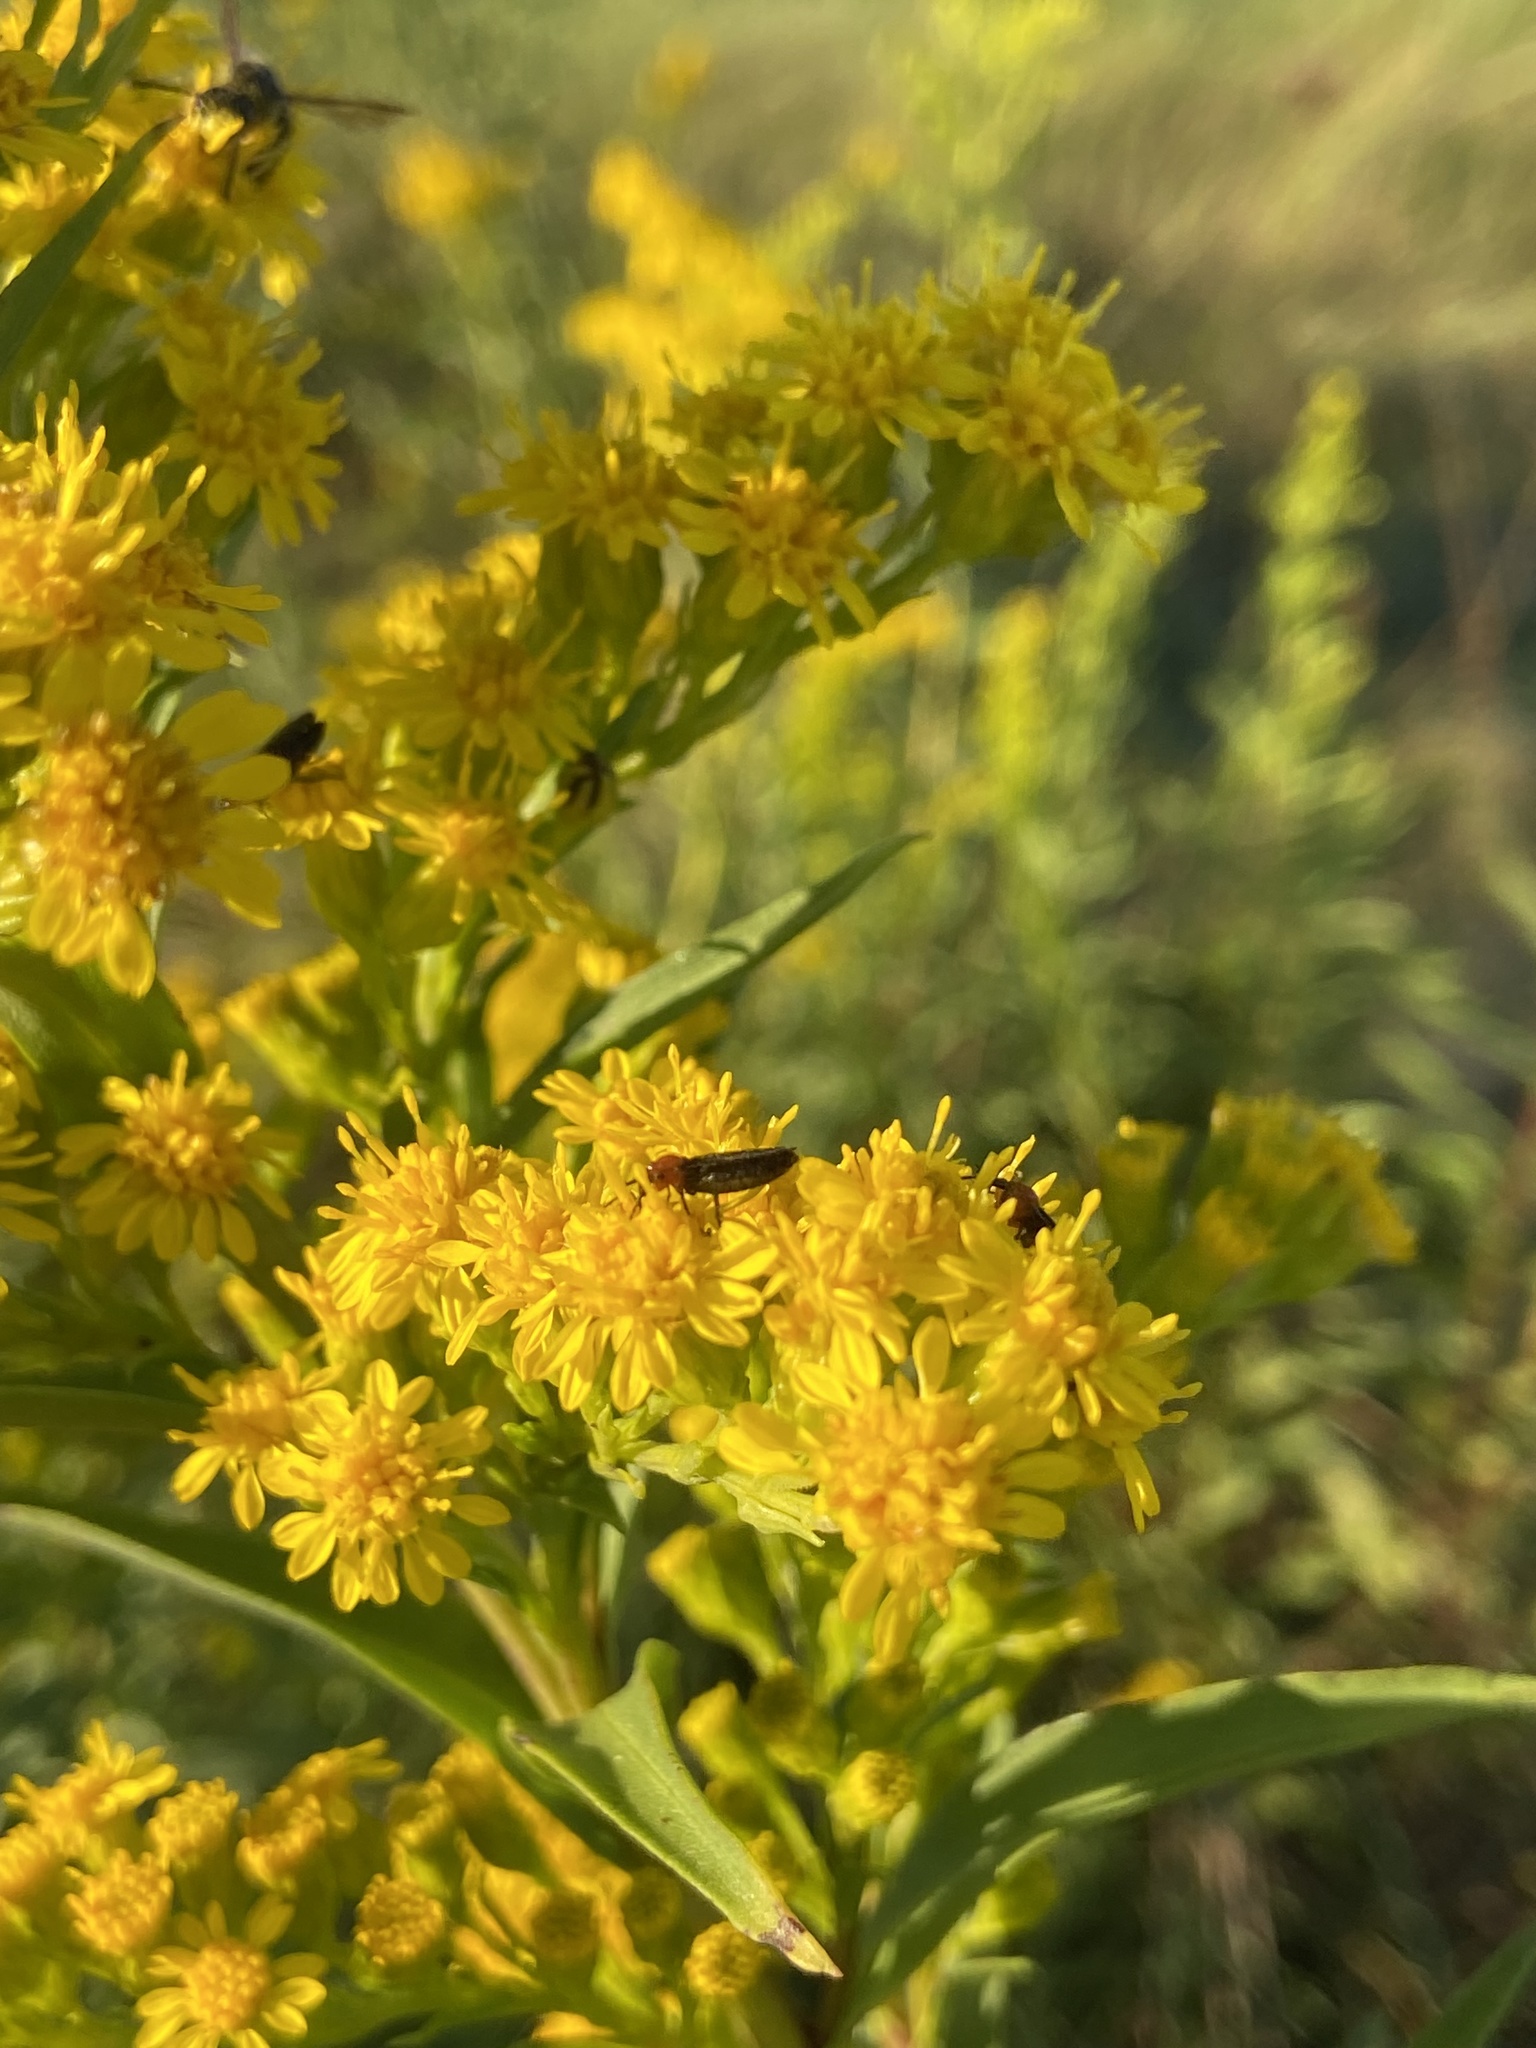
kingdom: Animalia
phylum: Arthropoda
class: Insecta
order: Diptera
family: Bibionidae
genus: Dilophus
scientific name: Dilophus spinipes
